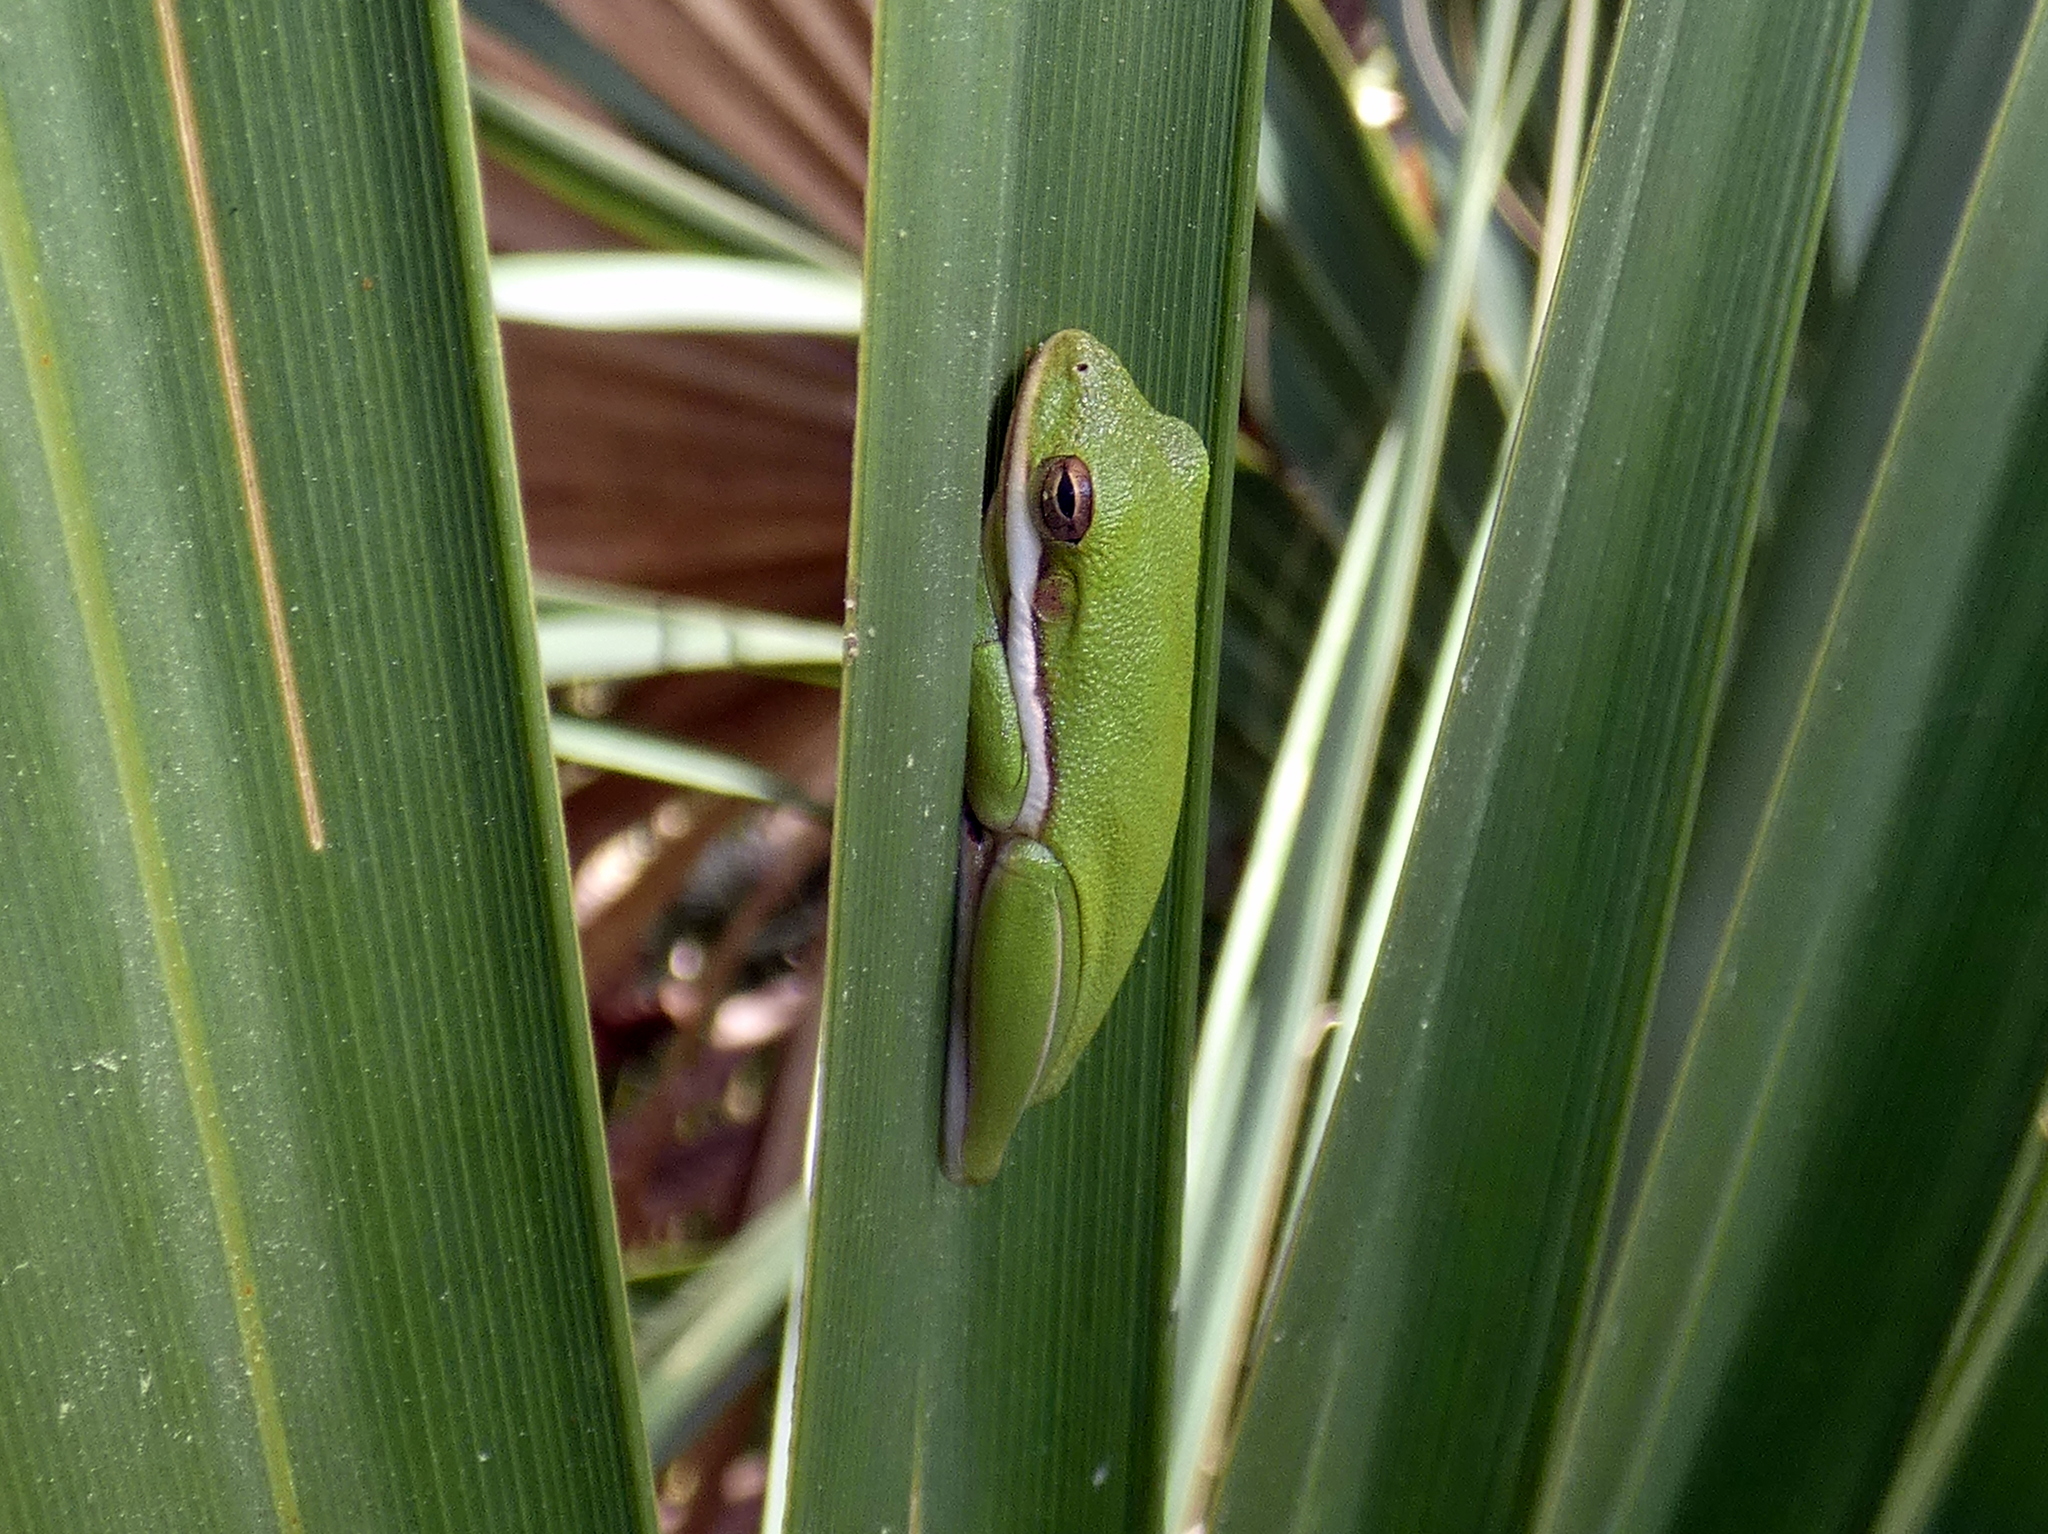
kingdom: Animalia
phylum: Chordata
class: Amphibia
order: Anura
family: Hylidae
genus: Dryophytes
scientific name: Dryophytes cinereus
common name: Green treefrog
